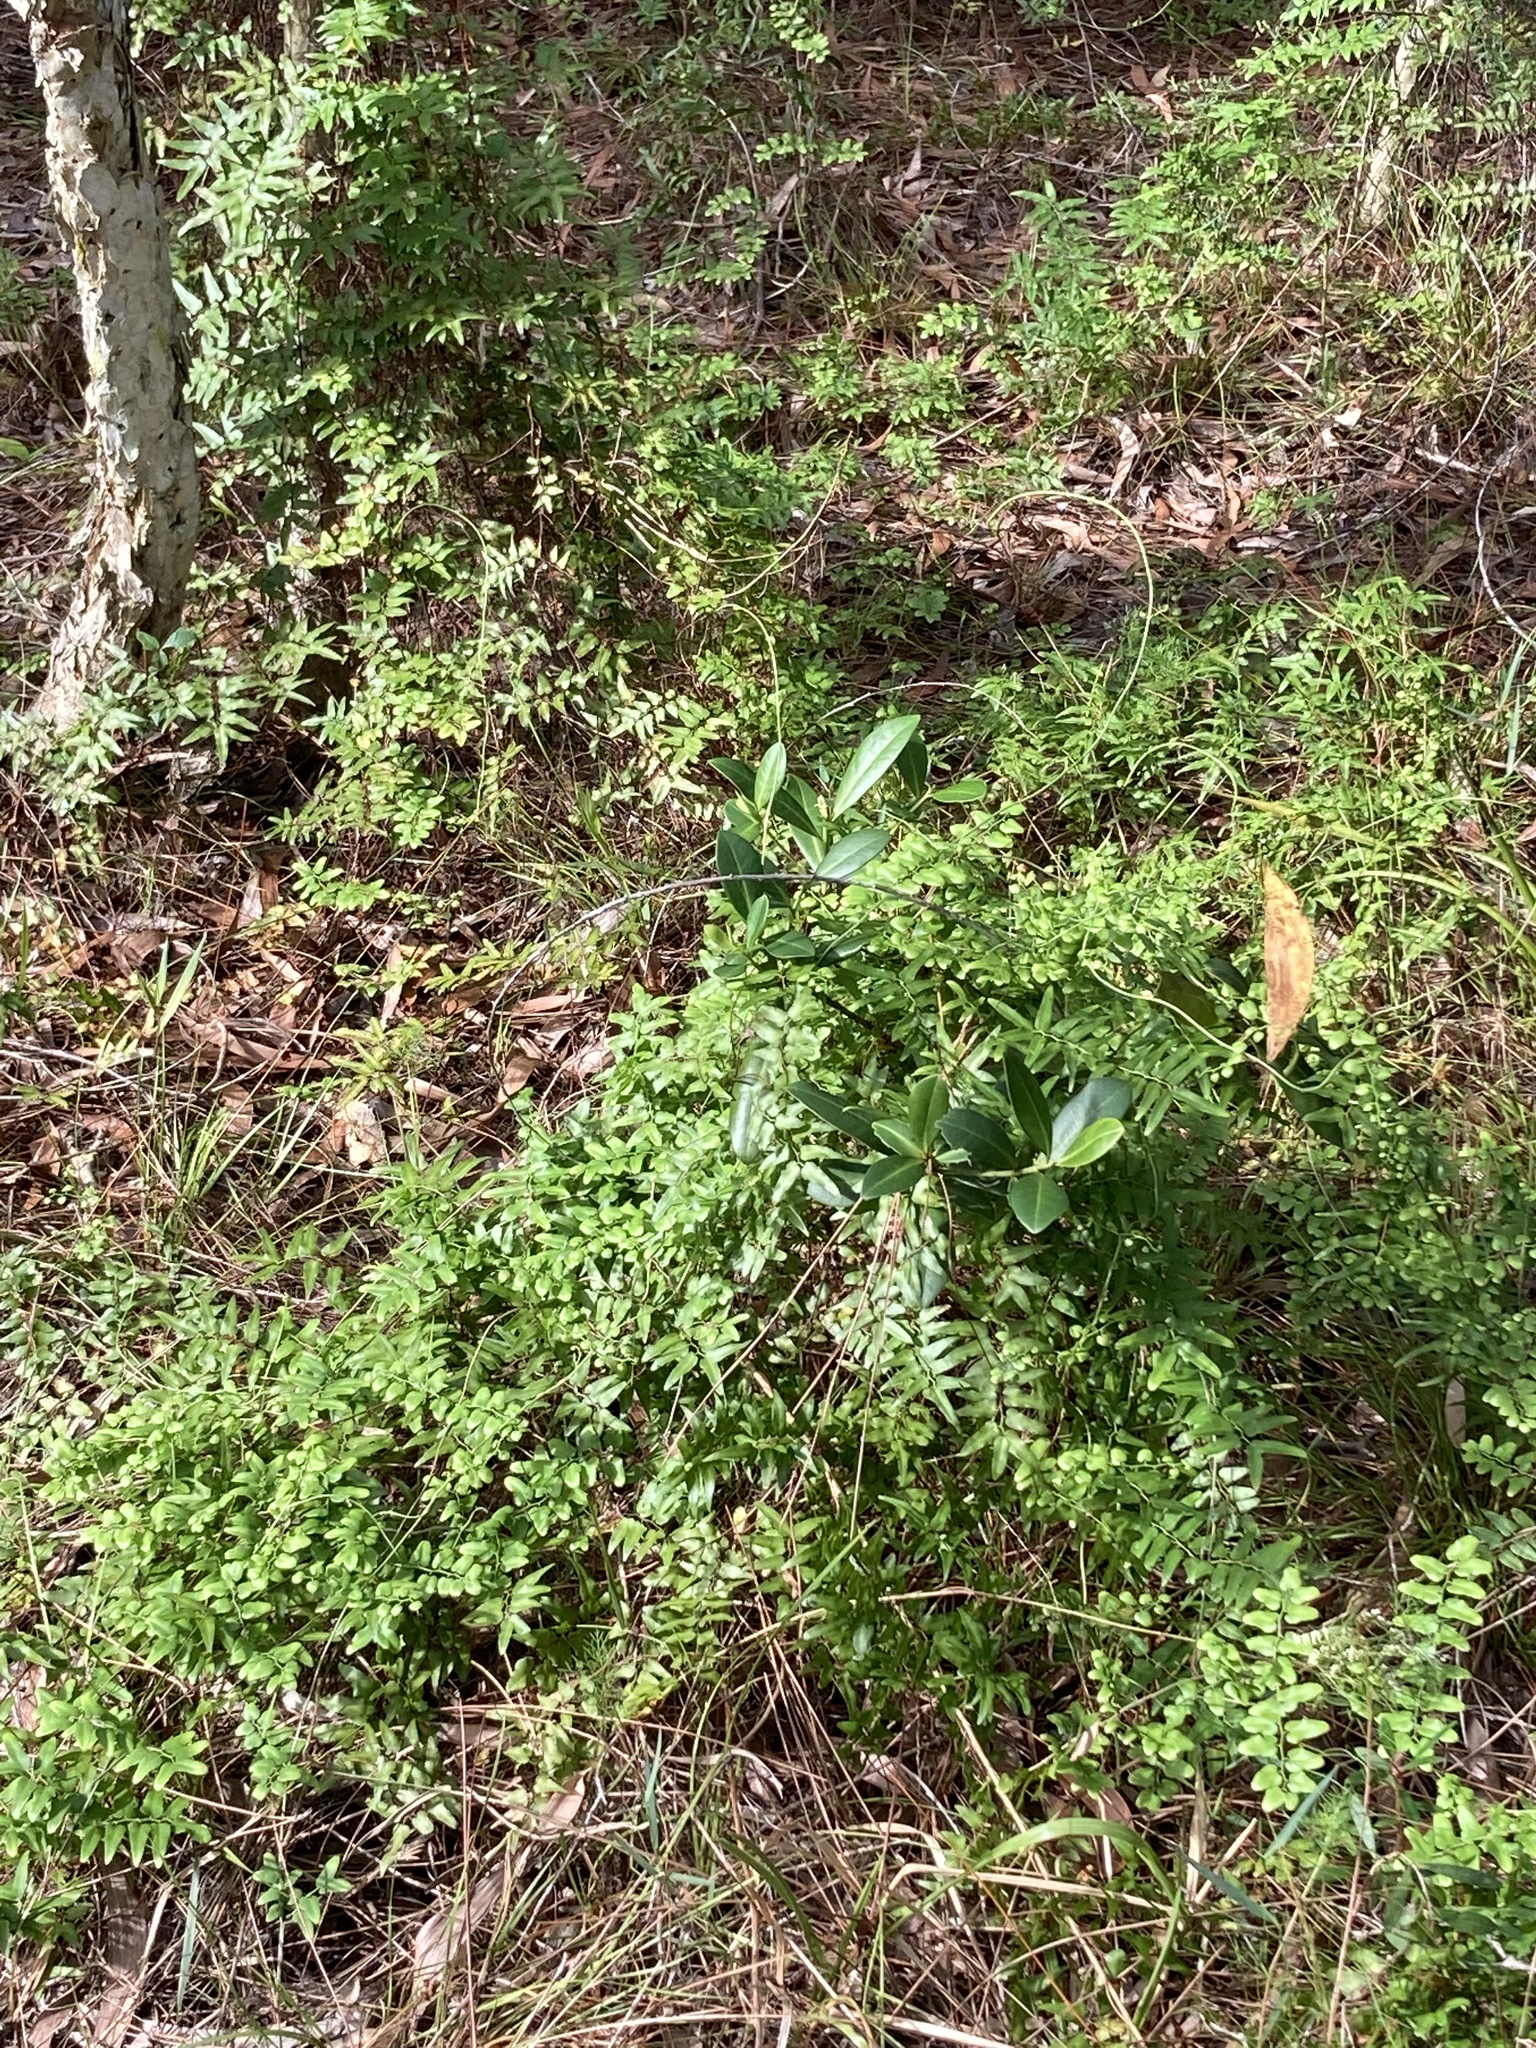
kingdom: Plantae
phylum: Tracheophyta
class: Polypodiopsida
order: Schizaeales
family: Lygodiaceae
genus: Lygodium
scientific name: Lygodium microphyllum
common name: Small-leaf climbing fern
